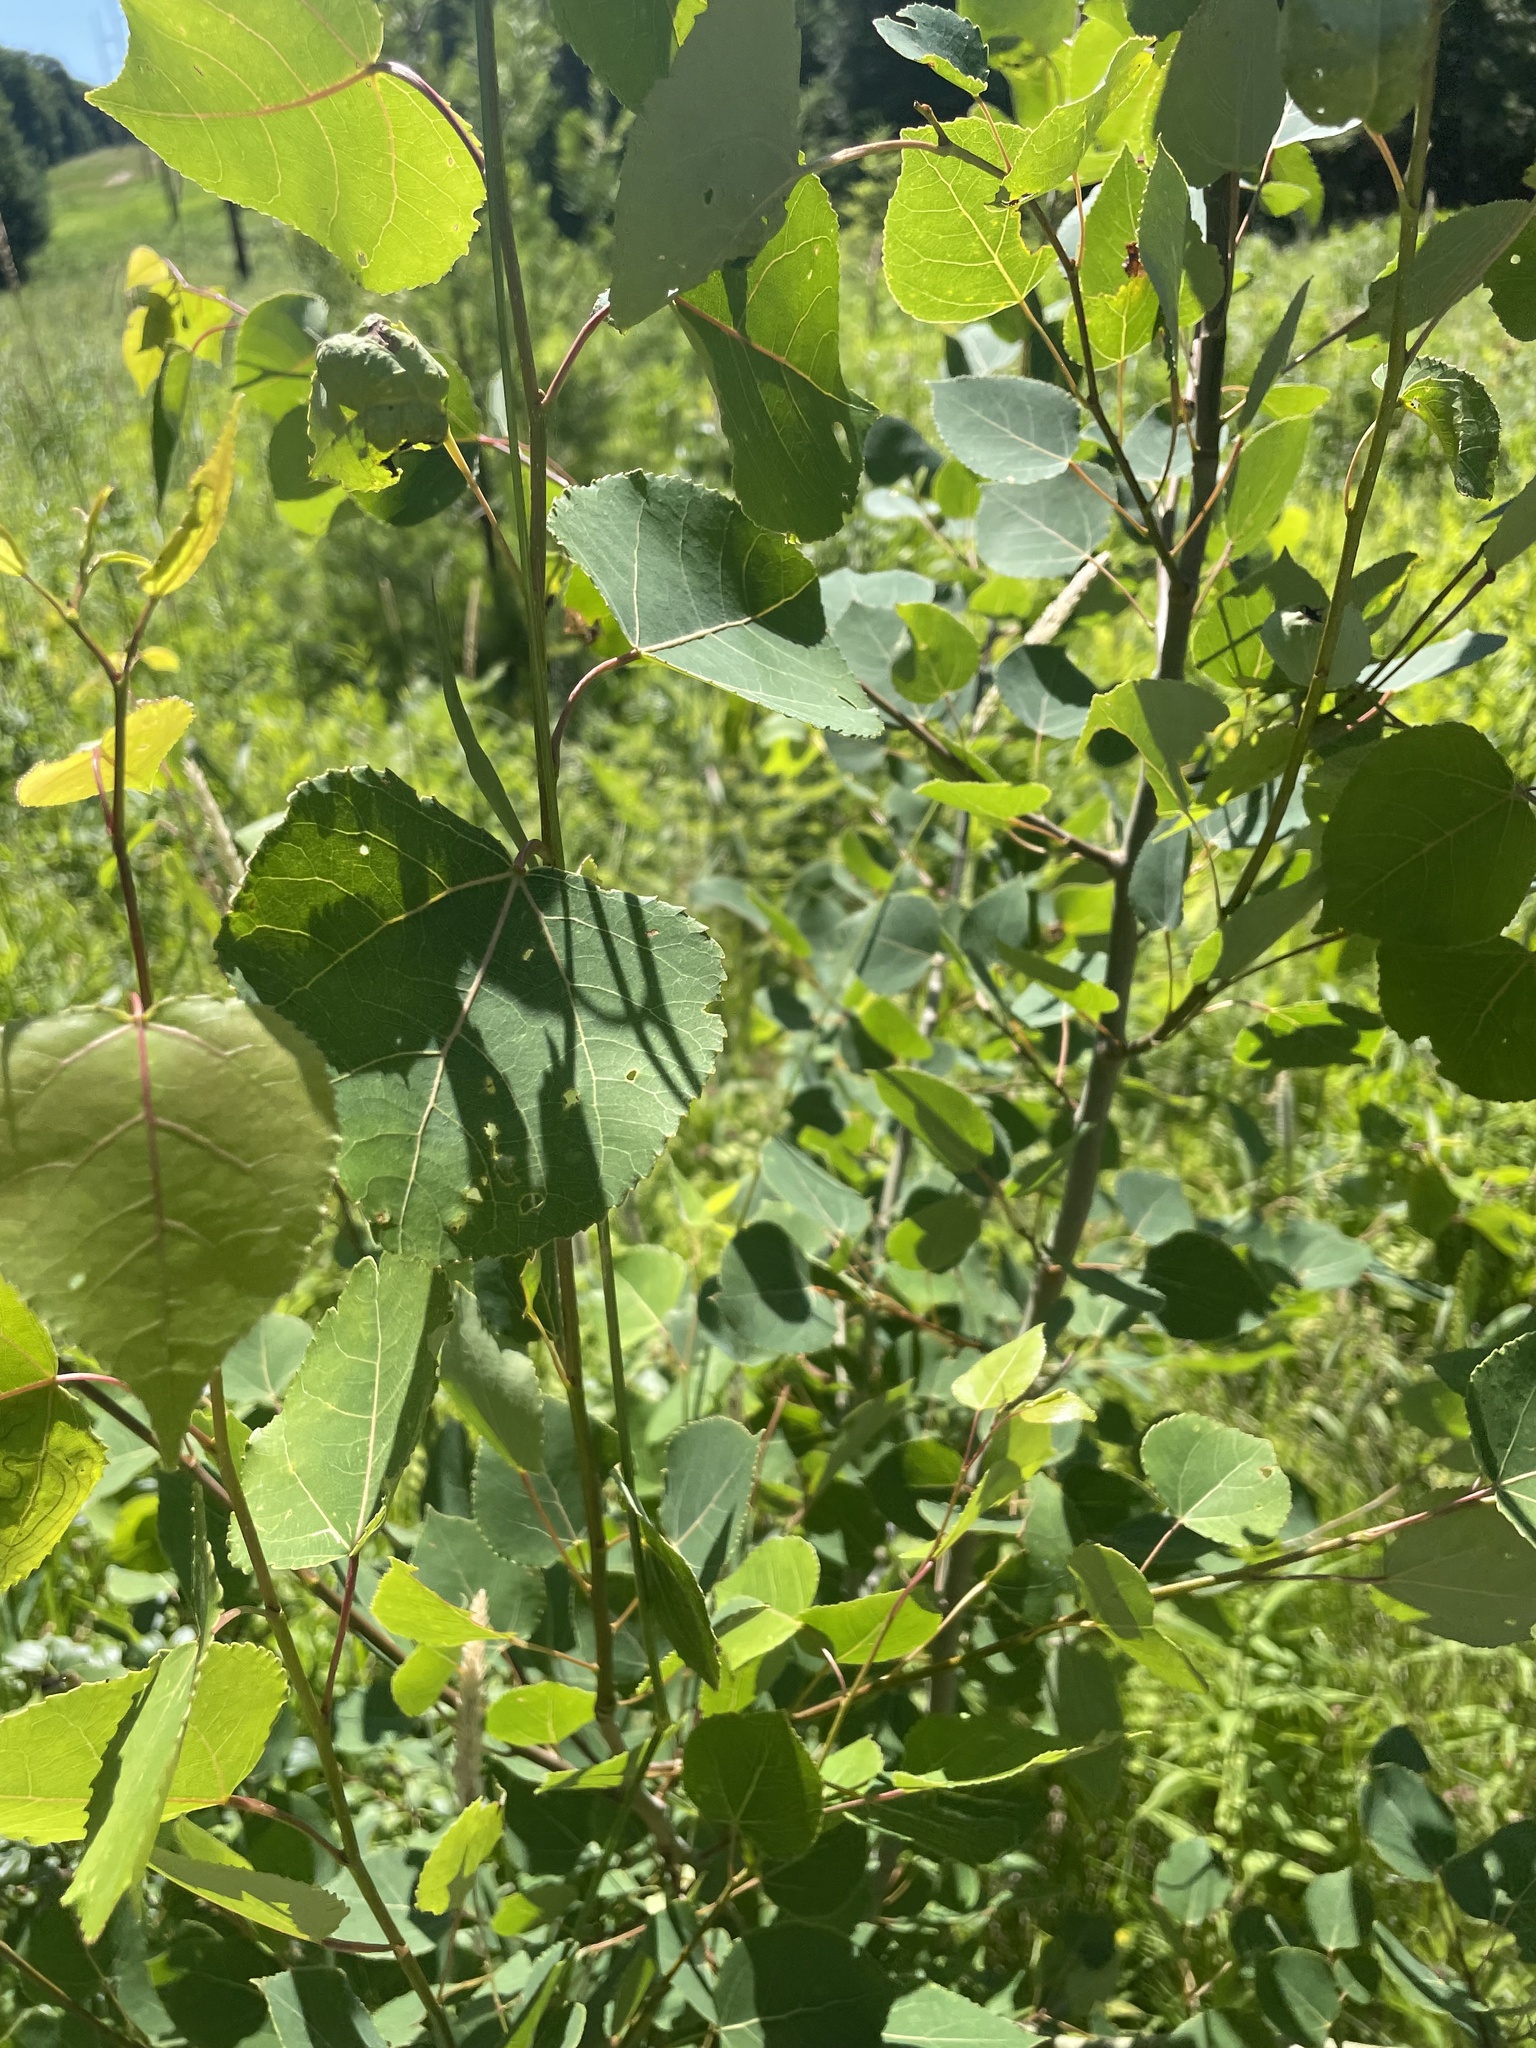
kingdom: Plantae
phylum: Tracheophyta
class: Magnoliopsida
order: Malpighiales
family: Salicaceae
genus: Populus
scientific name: Populus tremuloides
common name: Quaking aspen
